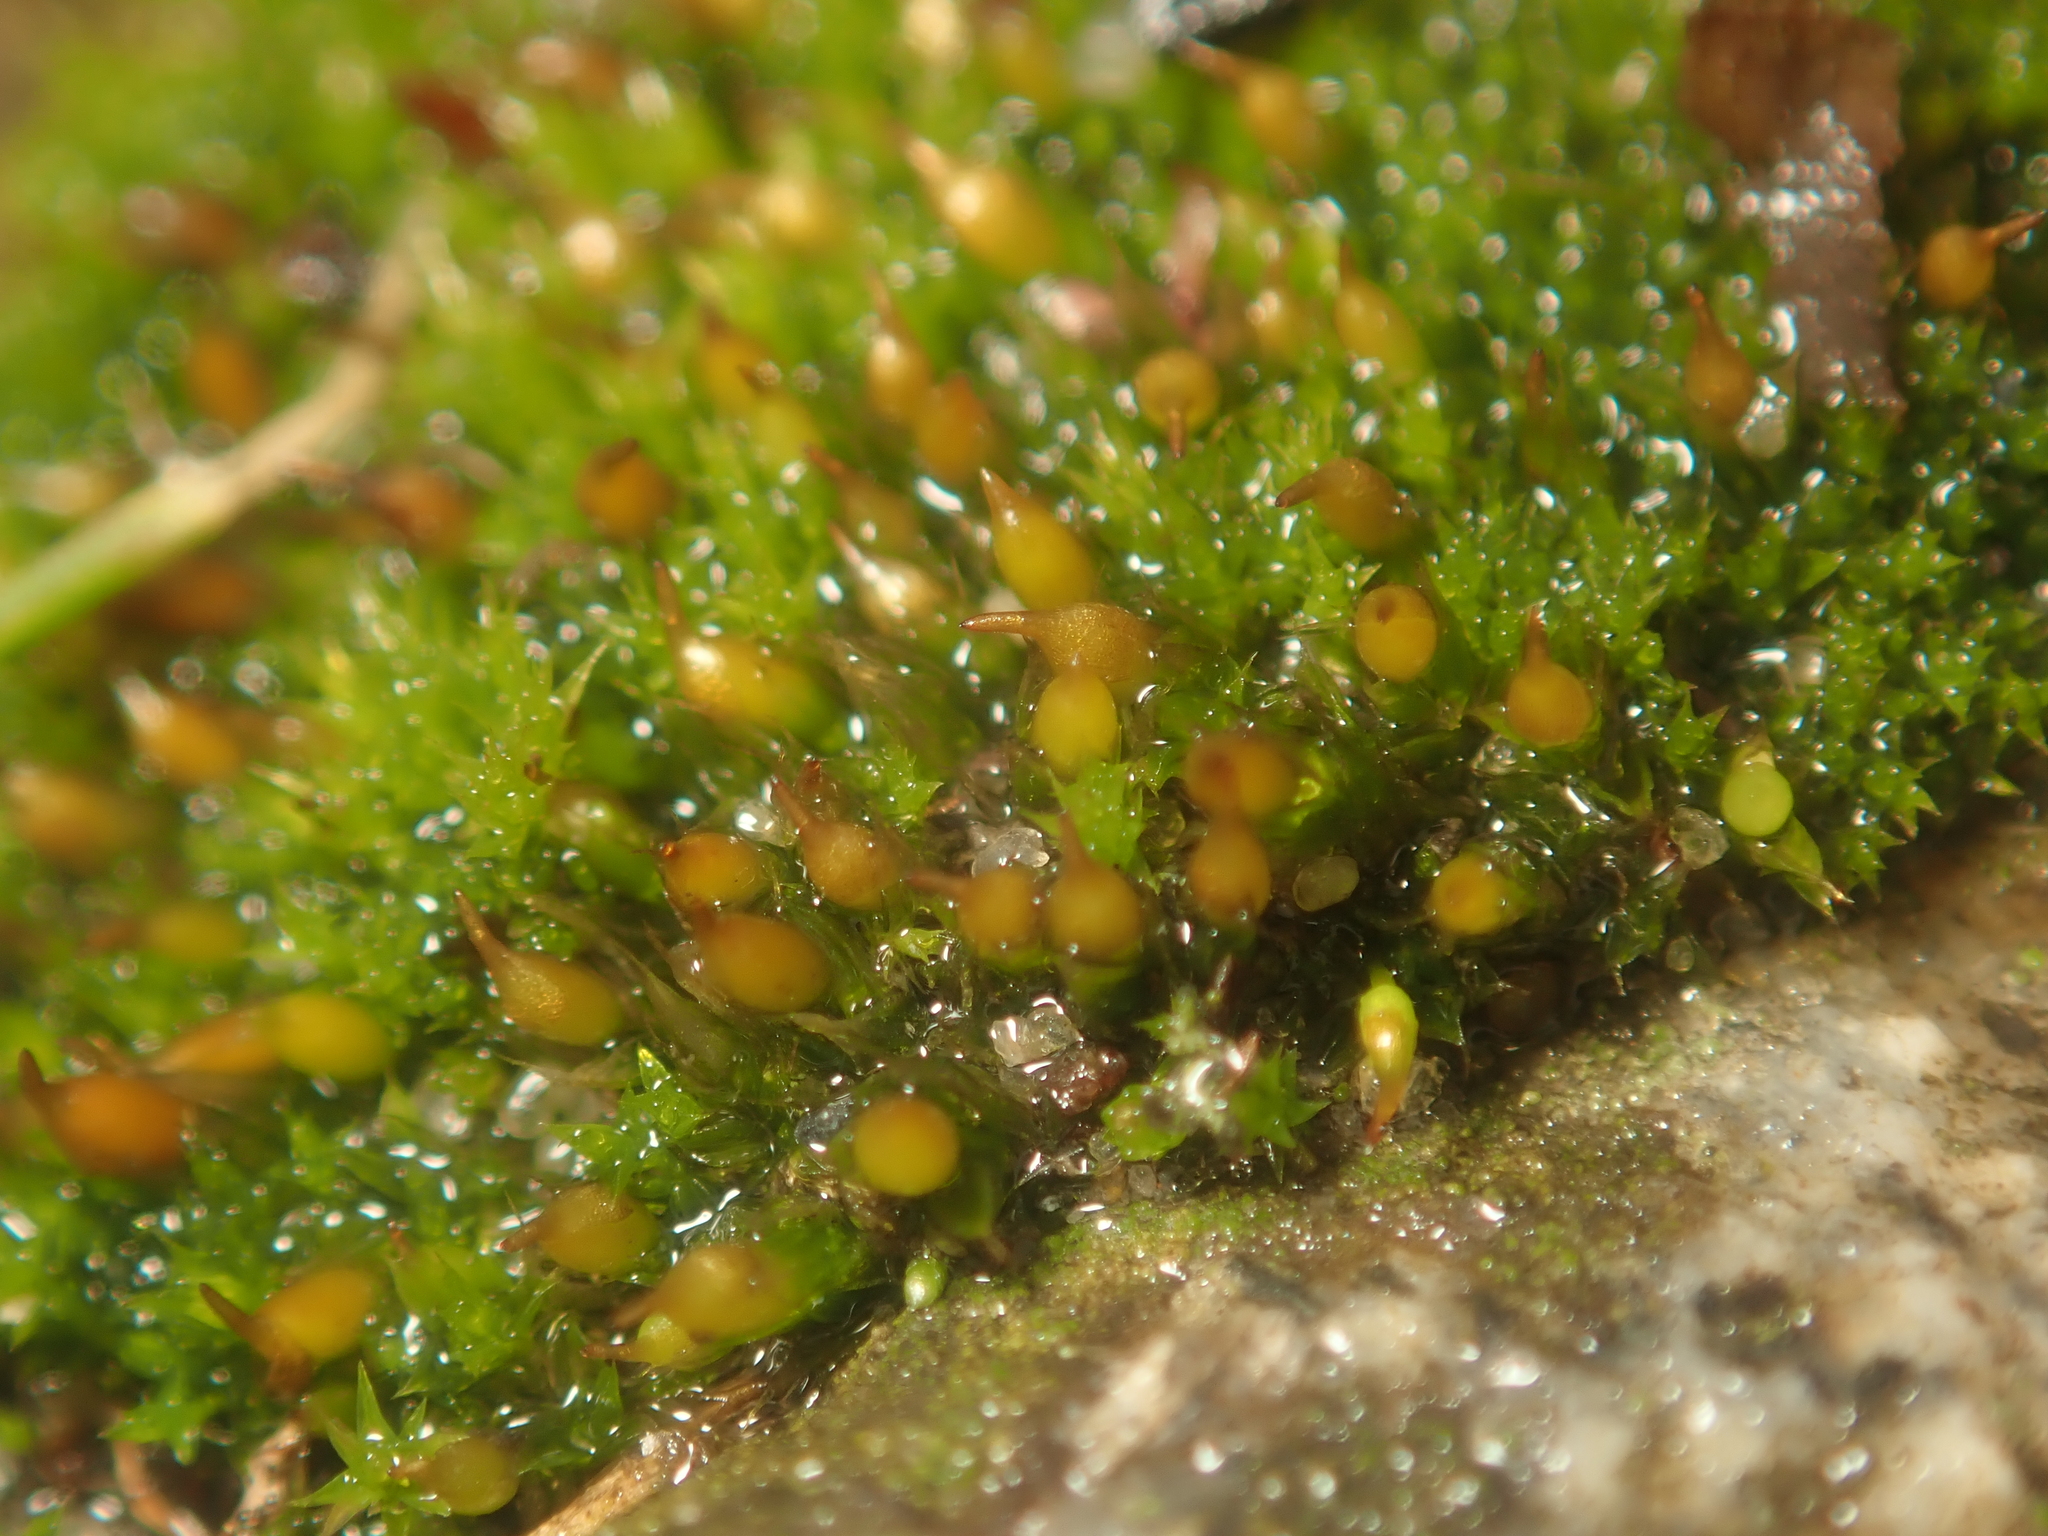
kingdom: Plantae
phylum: Bryophyta
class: Bryopsida
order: Pottiales
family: Pottiaceae
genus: Tortula
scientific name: Tortula protobryoides
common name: Tall pottia
